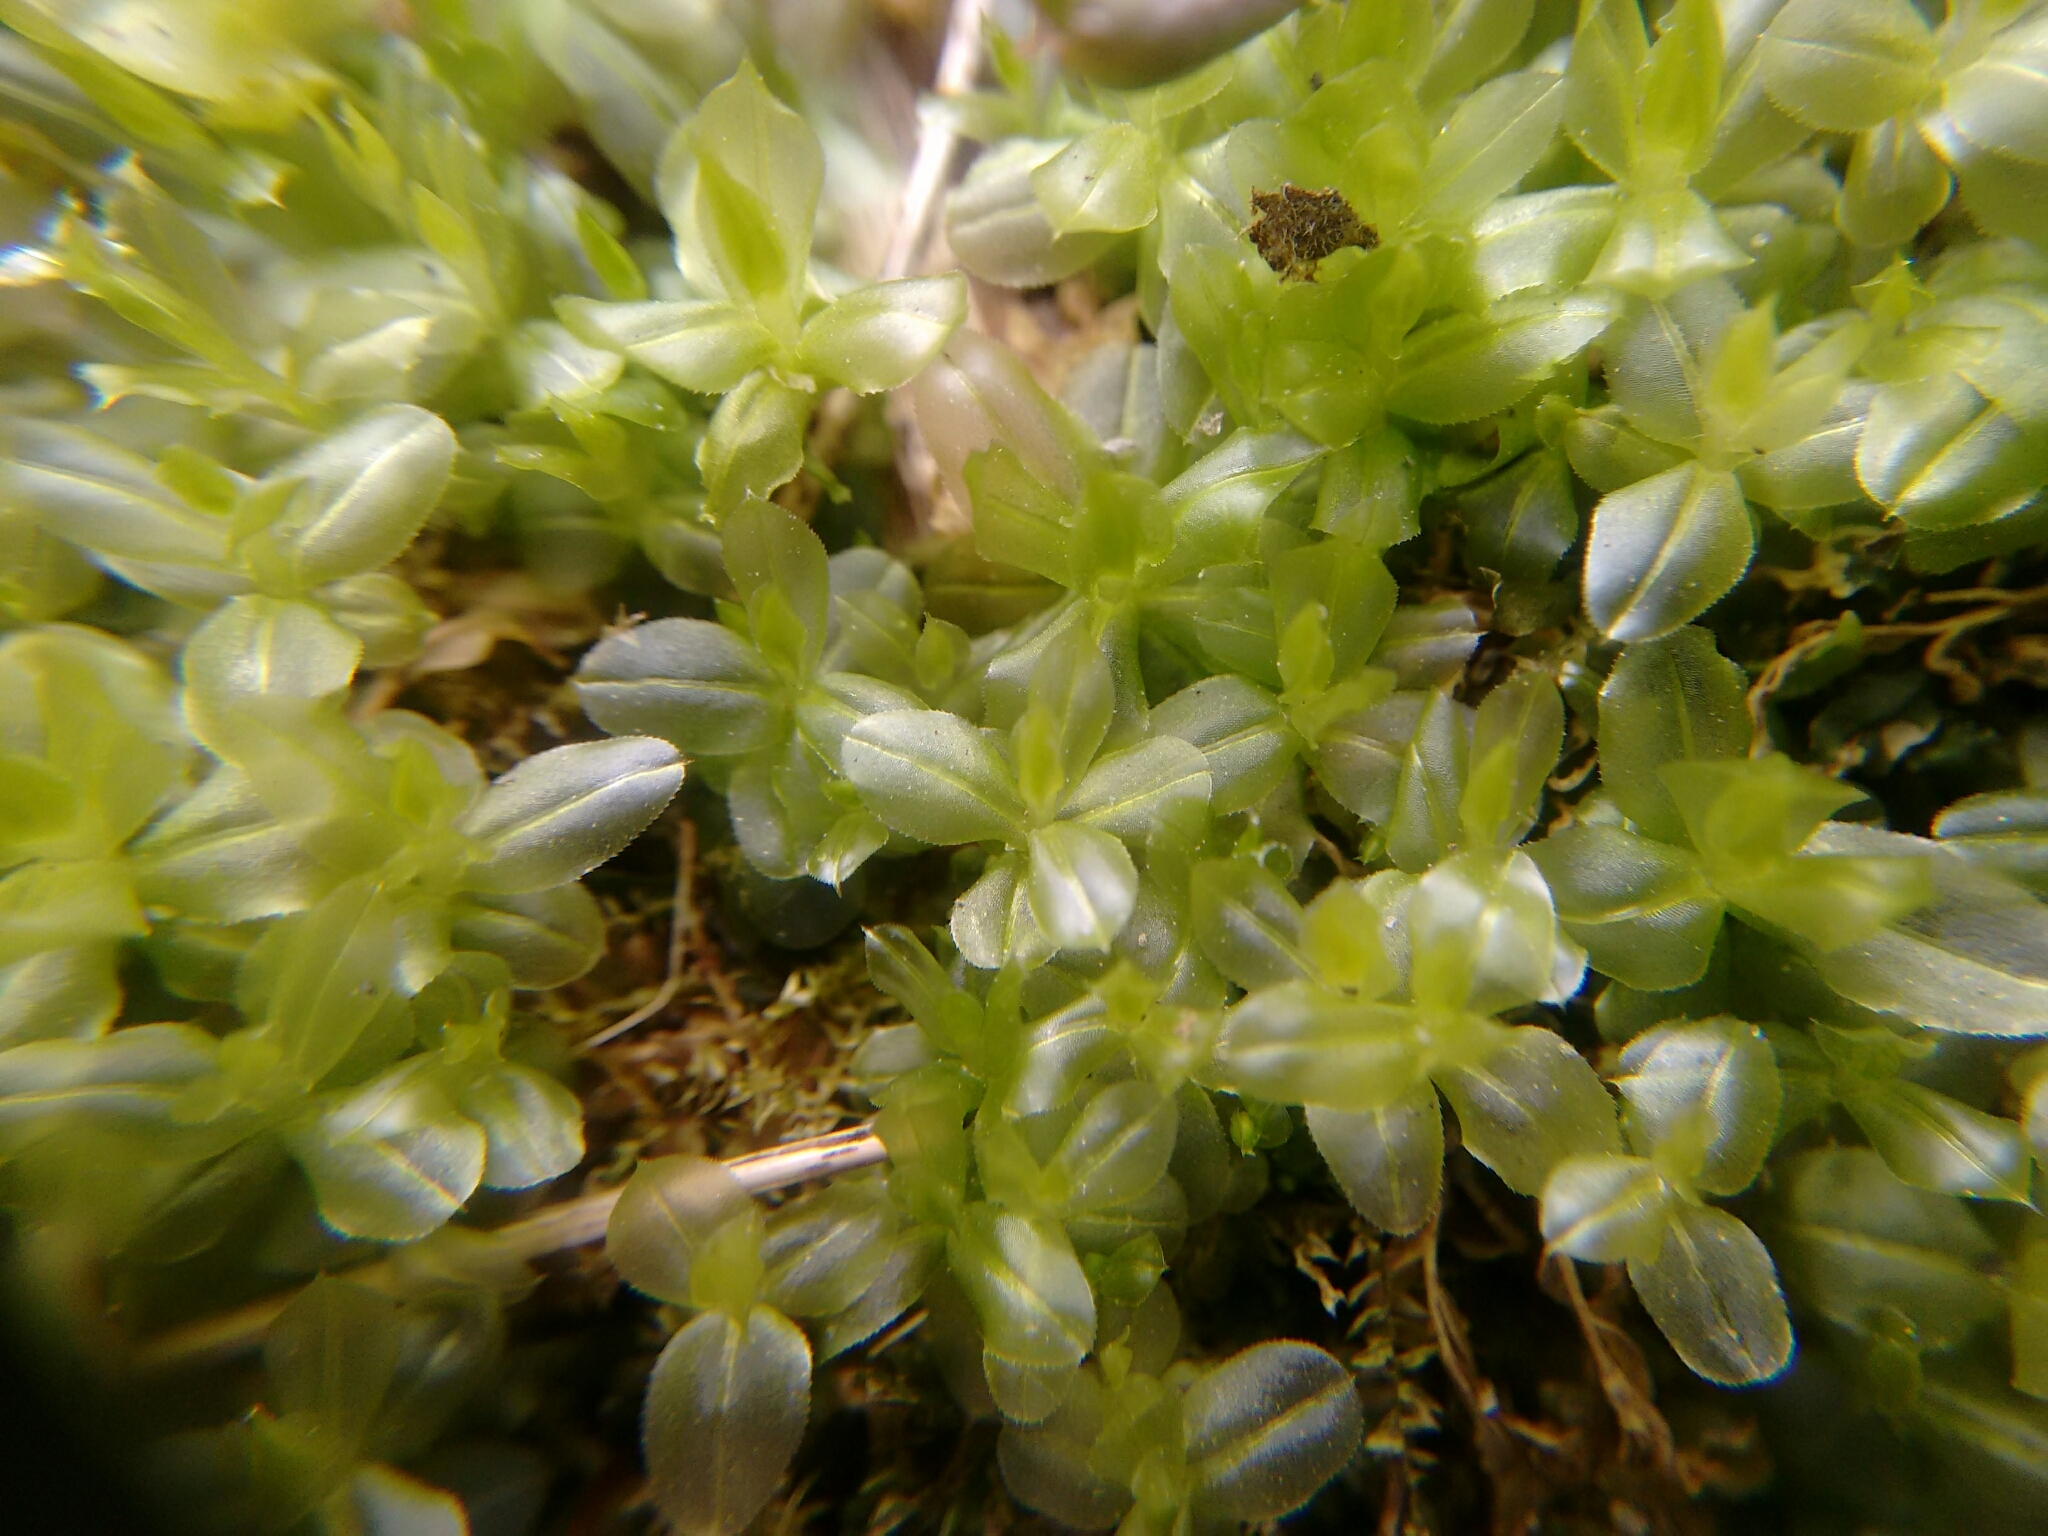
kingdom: Plantae
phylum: Bryophyta
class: Bryopsida
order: Bryales
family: Mniaceae
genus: Plagiomnium
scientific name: Plagiomnium ciliare
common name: Toothed leafy moss
